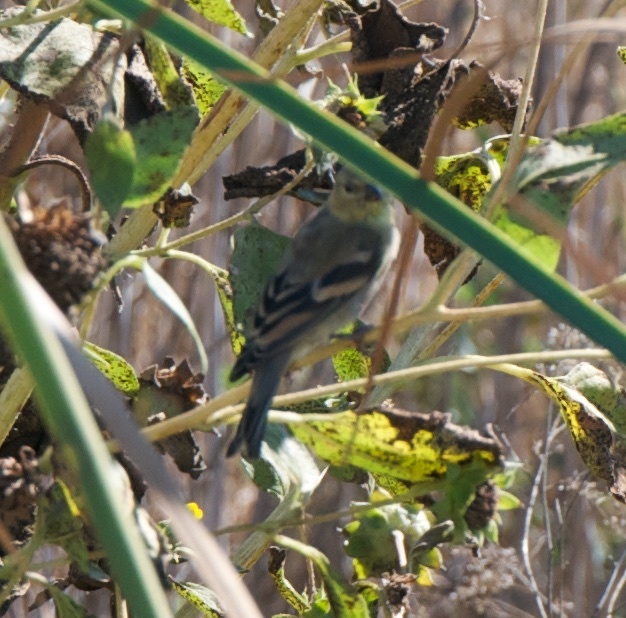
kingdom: Animalia
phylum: Chordata
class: Aves
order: Passeriformes
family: Fringillidae
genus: Spinus
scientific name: Spinus tristis
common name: American goldfinch
